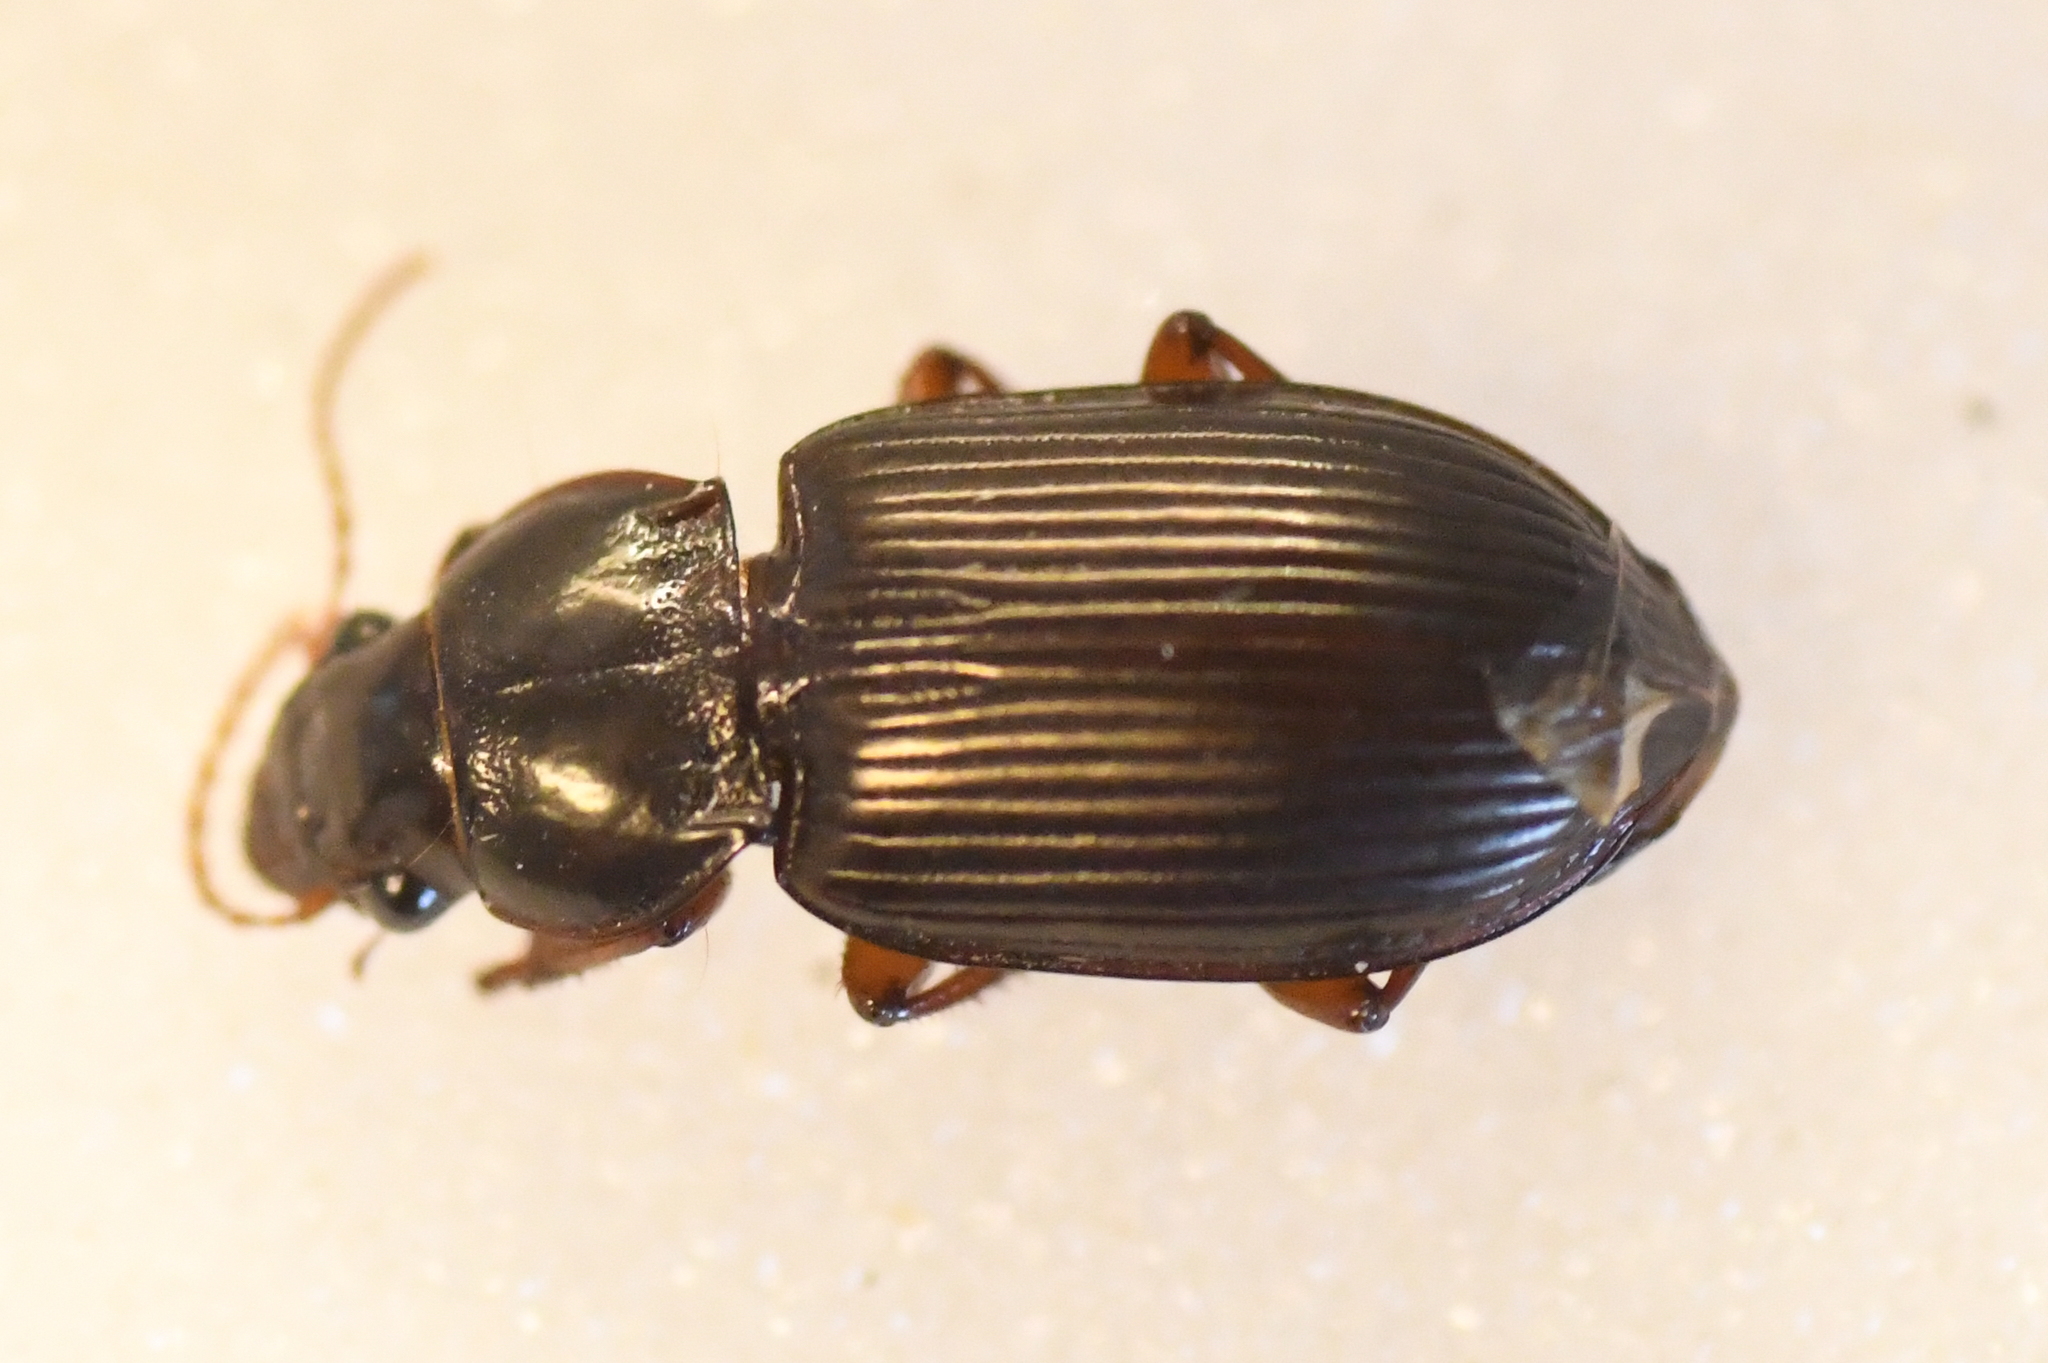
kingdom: Animalia
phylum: Arthropoda
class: Insecta
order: Coleoptera
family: Carabidae
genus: Amara
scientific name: Amara aulica
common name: Princely harp ground beetle
